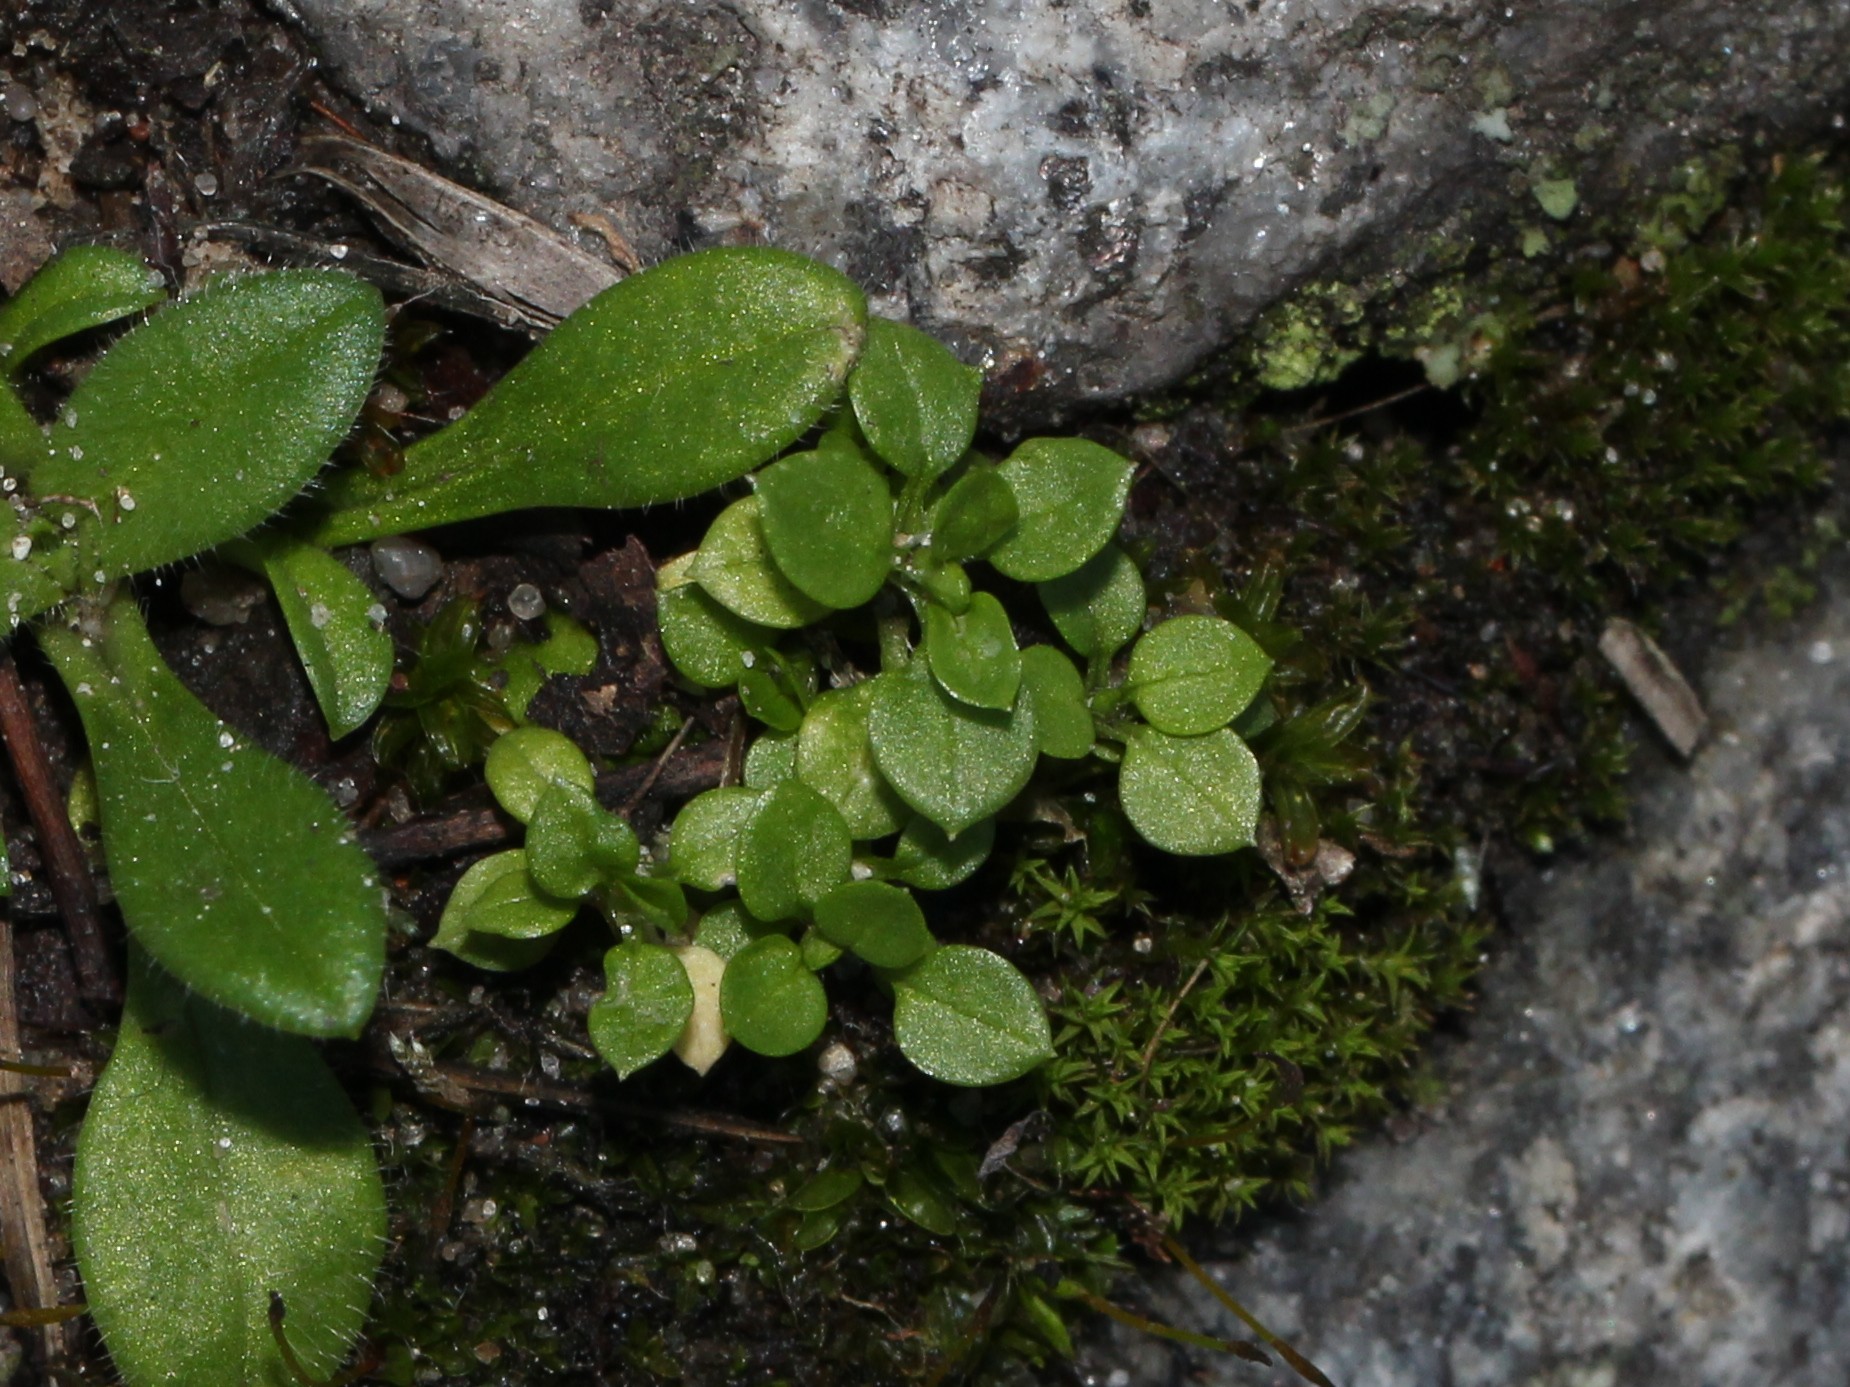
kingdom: Plantae
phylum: Tracheophyta
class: Magnoliopsida
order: Caryophyllales
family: Caryophyllaceae
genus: Stellaria
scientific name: Stellaria media
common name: Common chickweed
